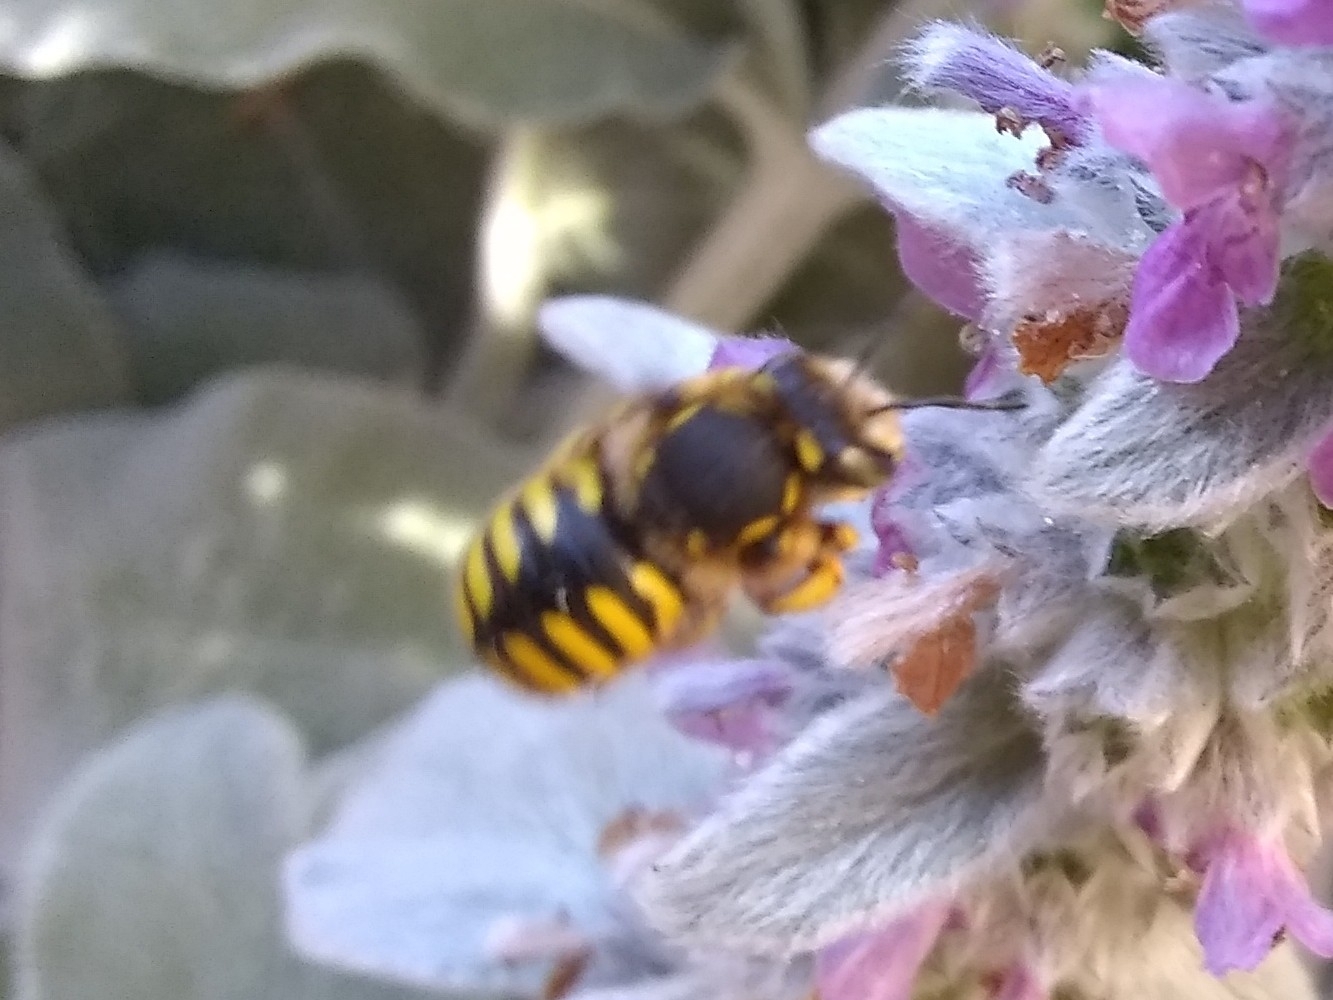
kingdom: Animalia
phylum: Arthropoda
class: Insecta
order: Hymenoptera
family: Megachilidae
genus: Anthidium
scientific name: Anthidium manicatum
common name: Wool carder bee
